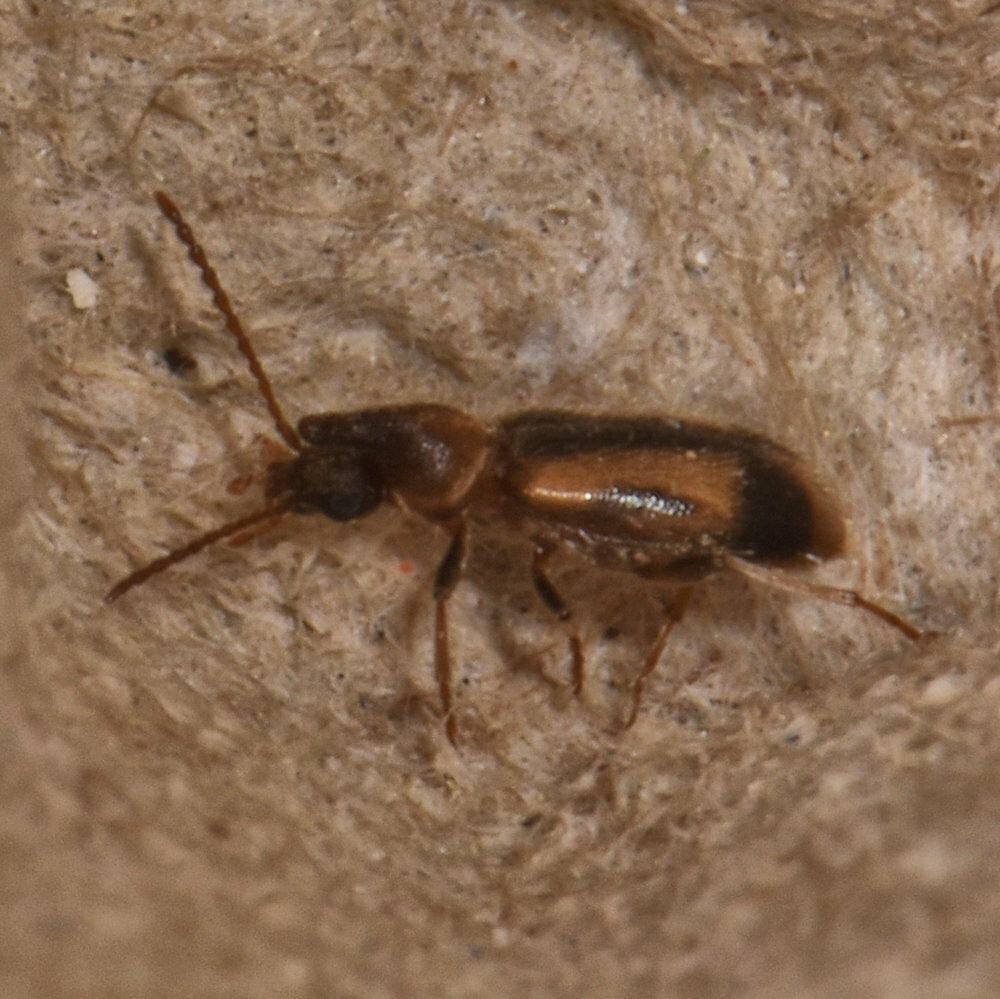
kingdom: Animalia
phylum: Arthropoda
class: Insecta
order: Coleoptera
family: Anthicidae
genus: Notoxus
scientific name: Notoxus anchora
